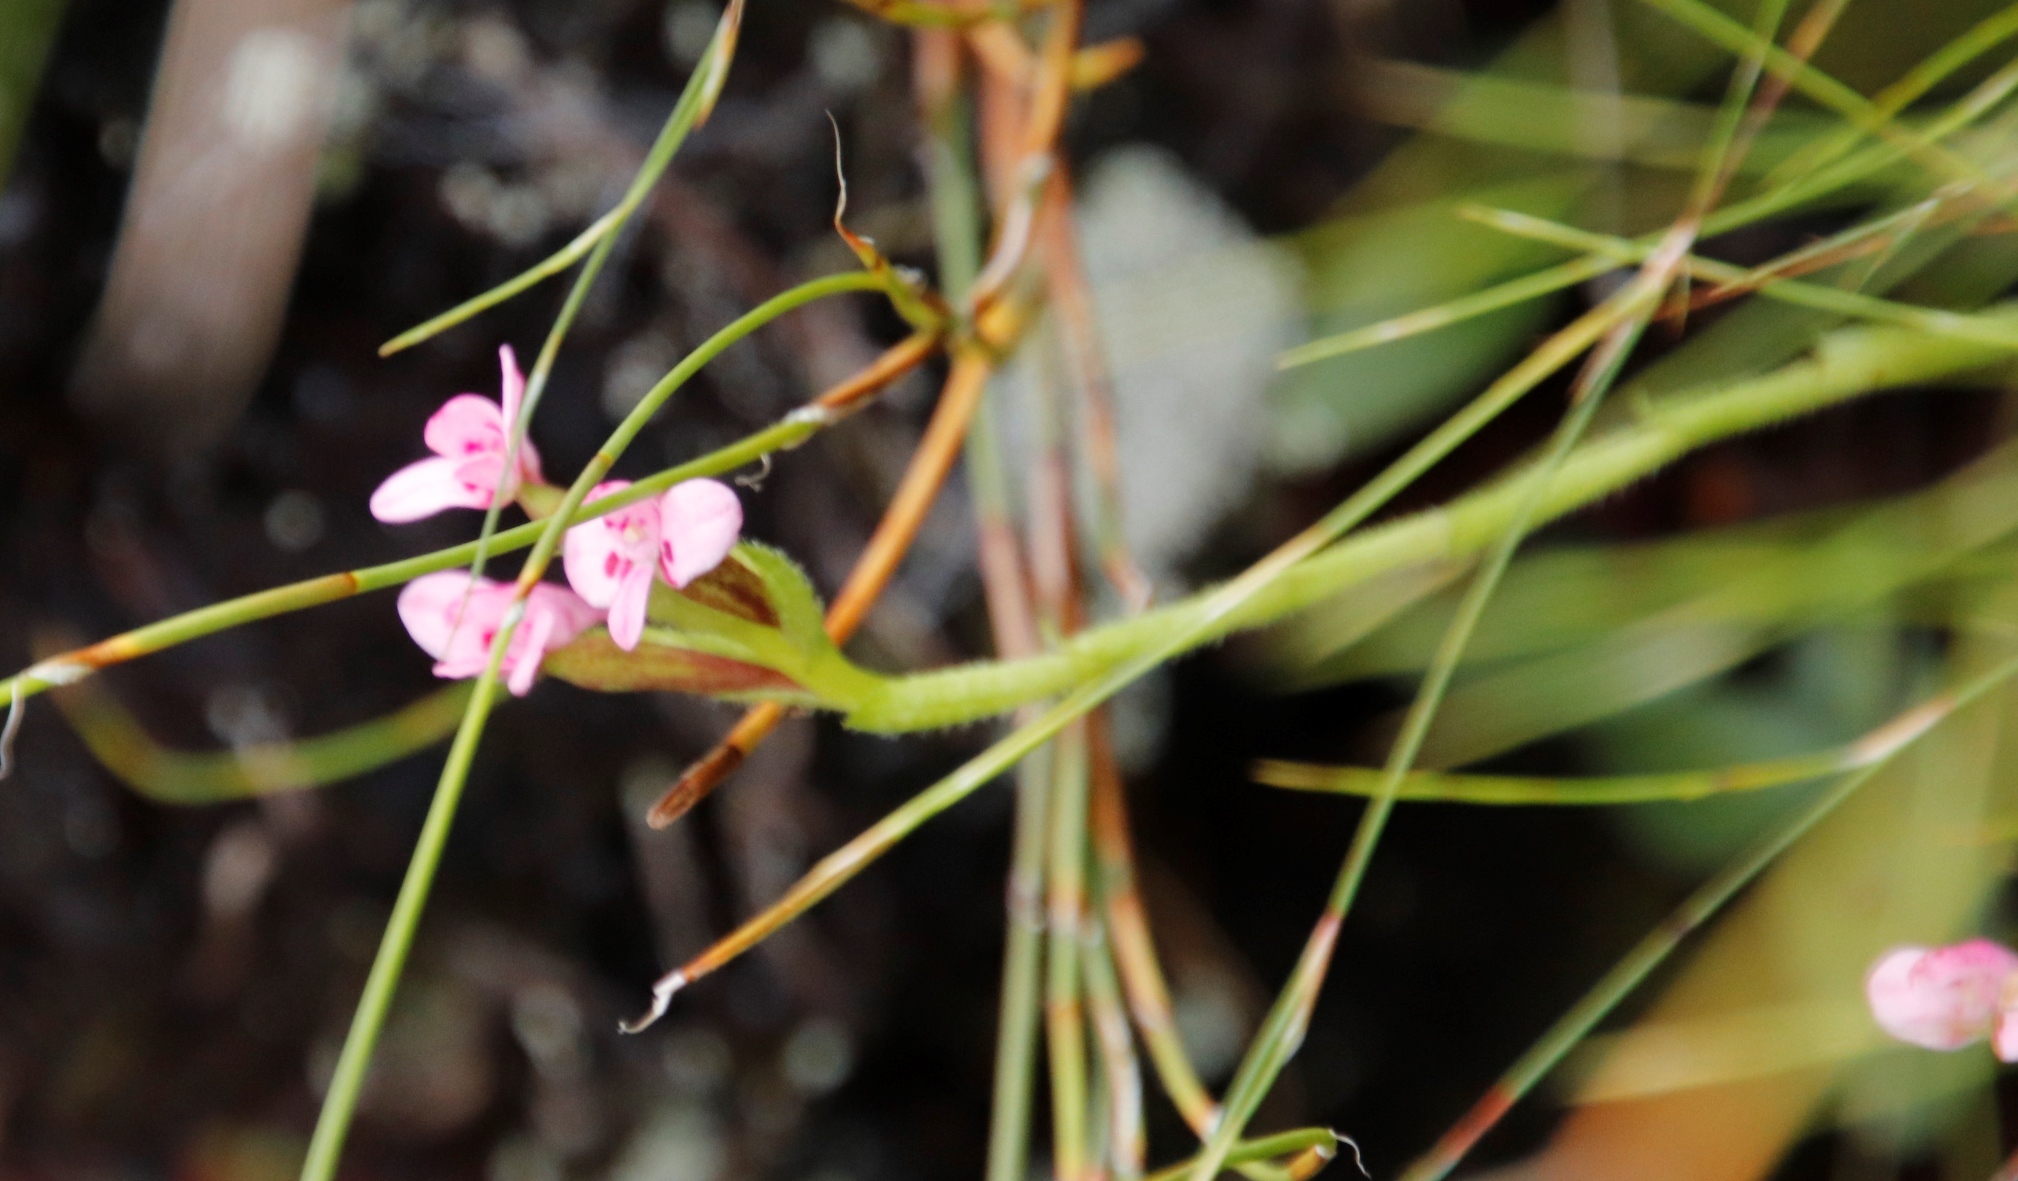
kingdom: Plantae
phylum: Tracheophyta
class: Liliopsida
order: Asparagales
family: Orchidaceae
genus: Disa
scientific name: Disa glandulosa
